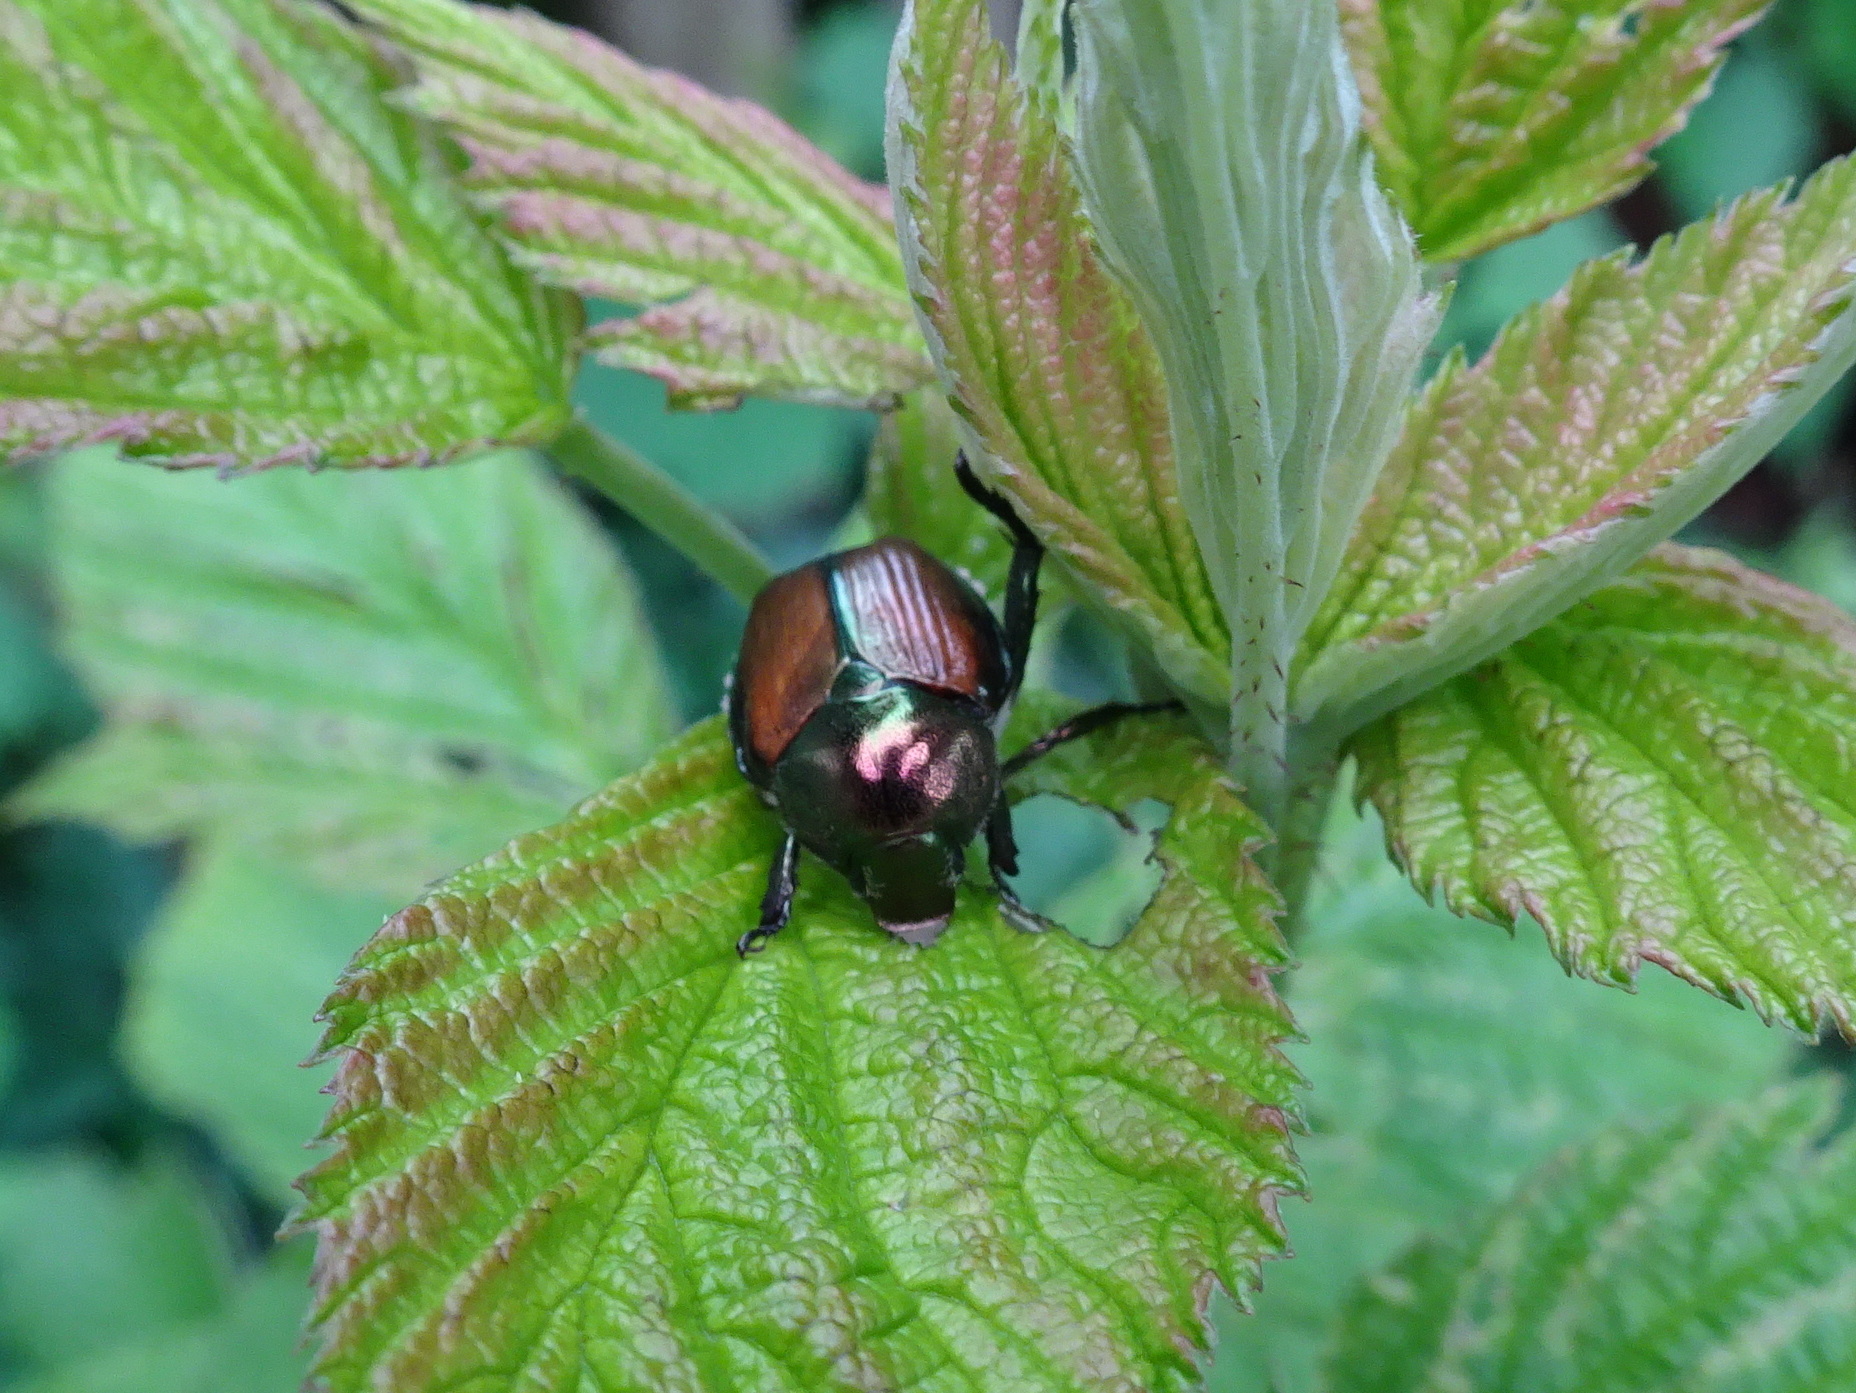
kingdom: Animalia
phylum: Arthropoda
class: Insecta
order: Coleoptera
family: Scarabaeidae
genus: Popillia
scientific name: Popillia japonica
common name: Japanese beetle
